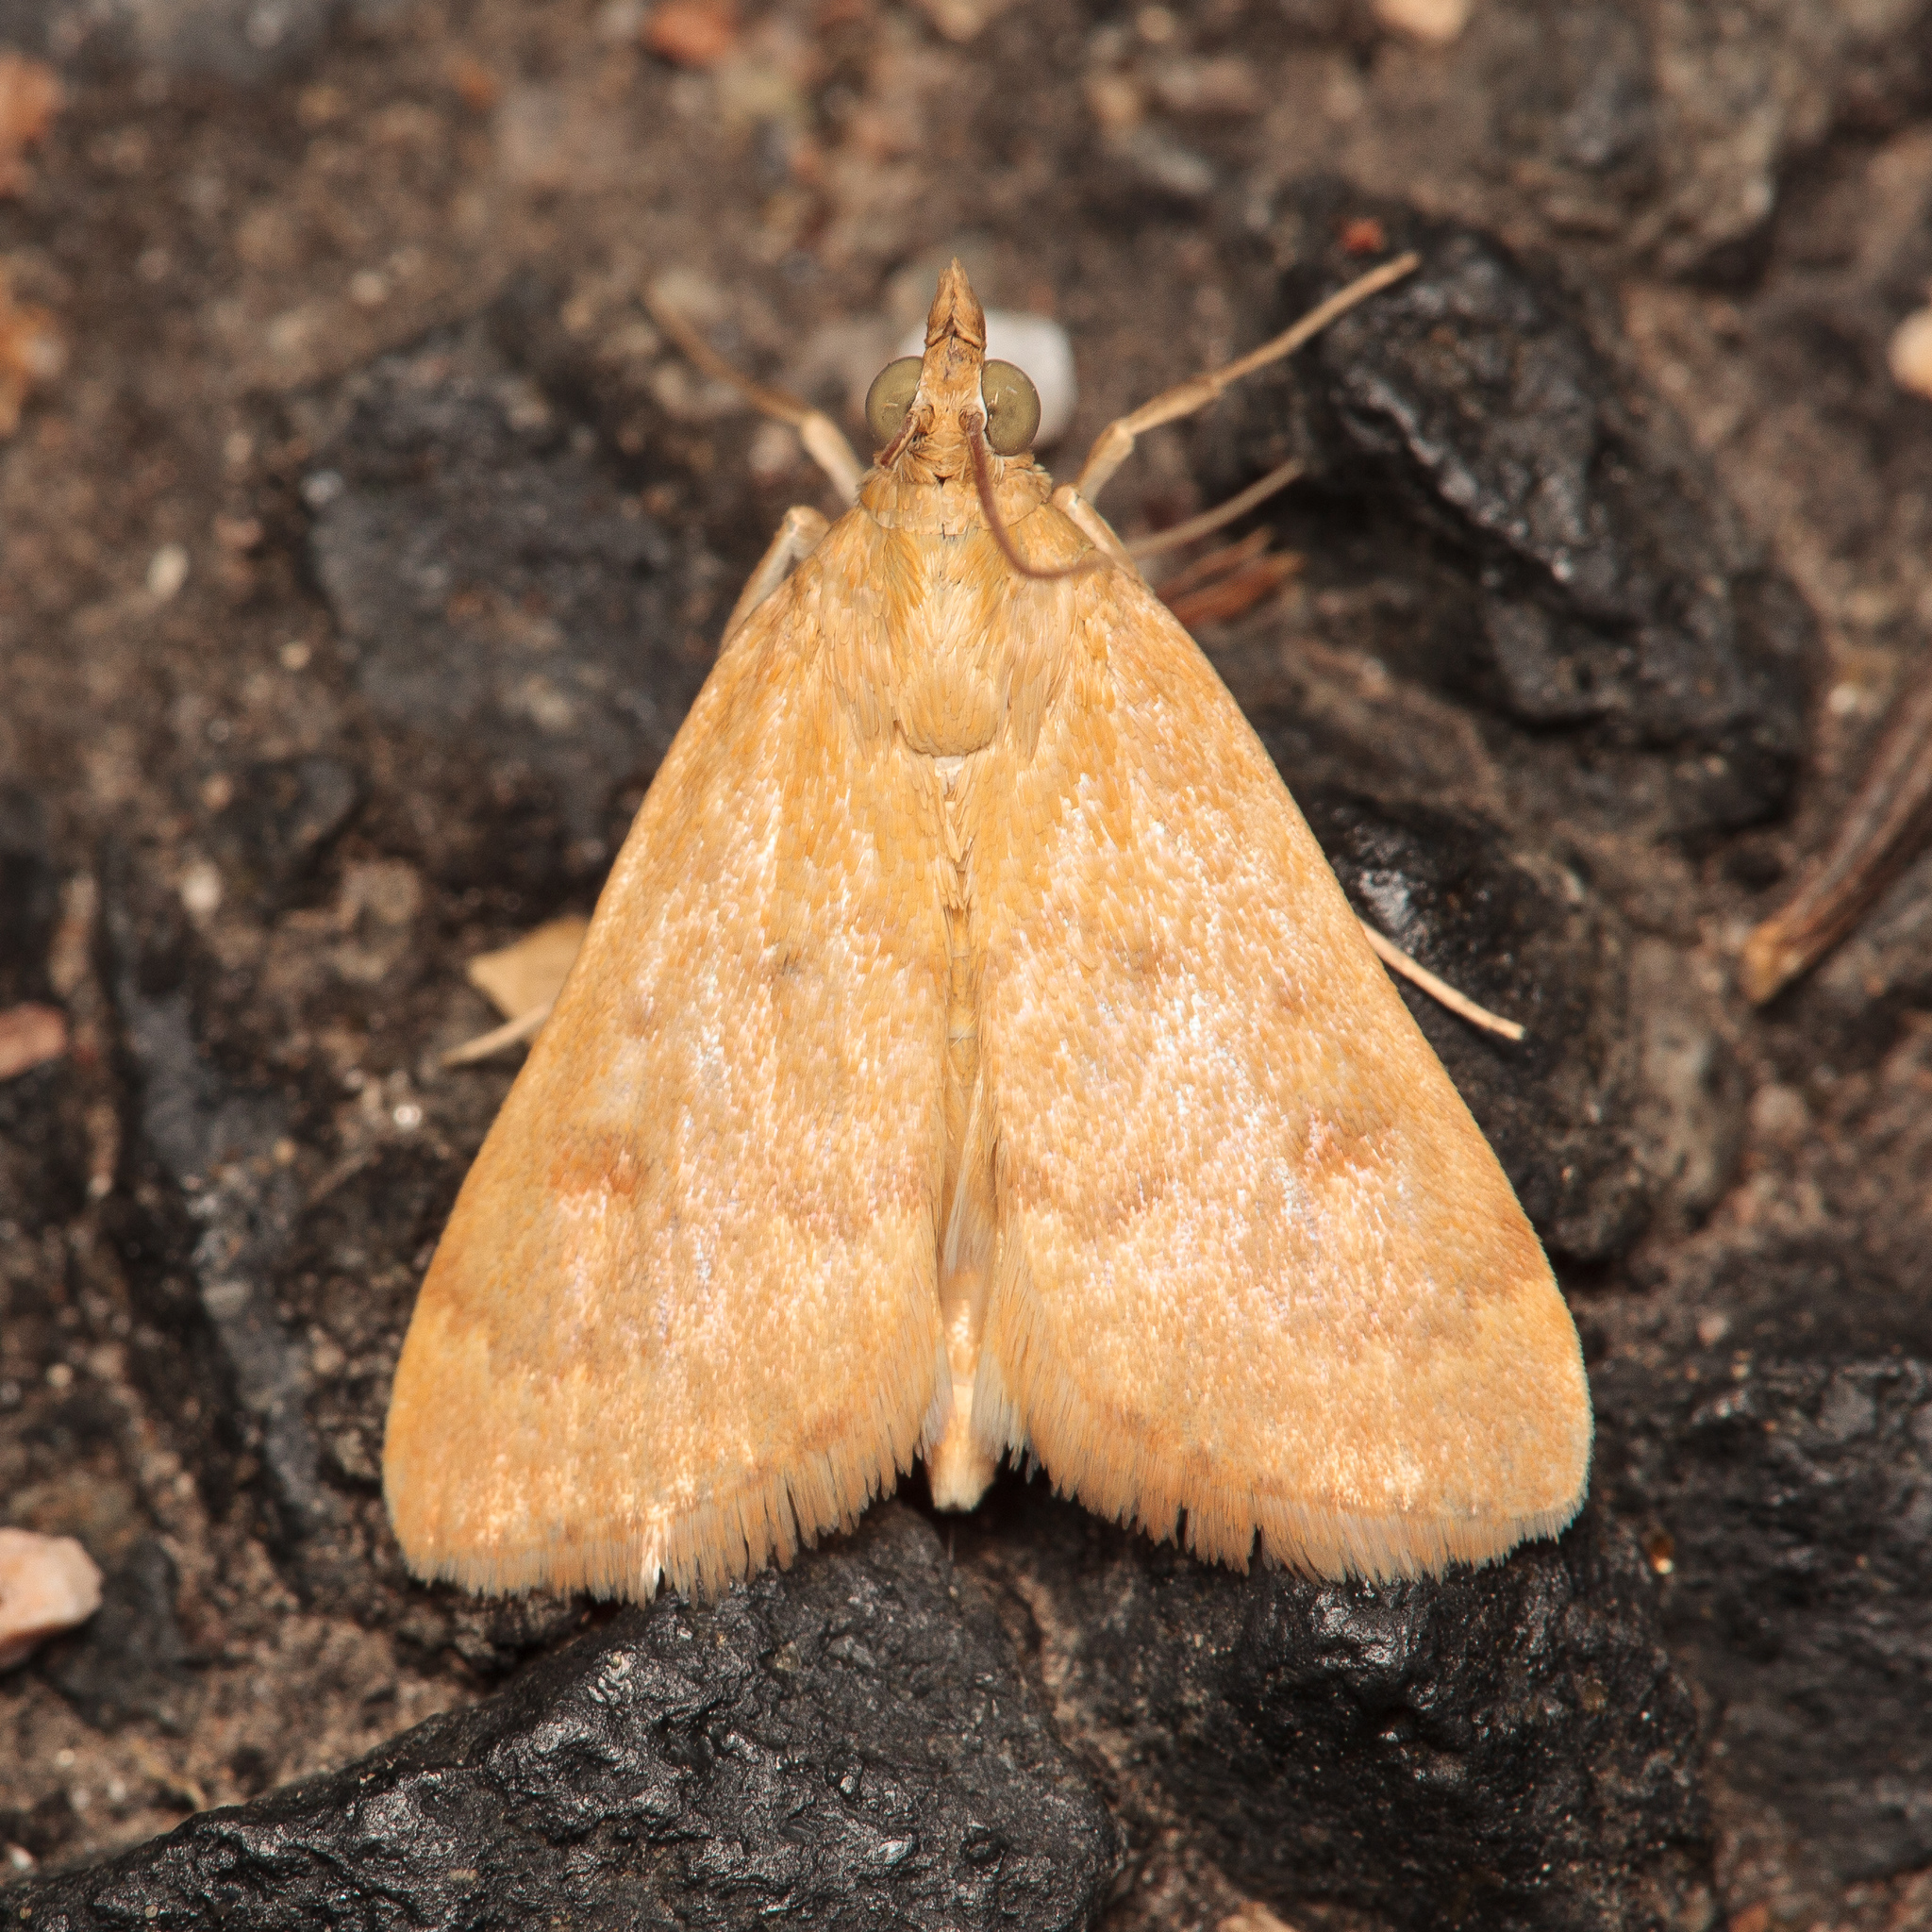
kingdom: Animalia
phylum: Arthropoda
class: Insecta
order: Lepidoptera
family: Crambidae
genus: Achyra
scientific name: Achyra rantalis
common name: Garden webworm
